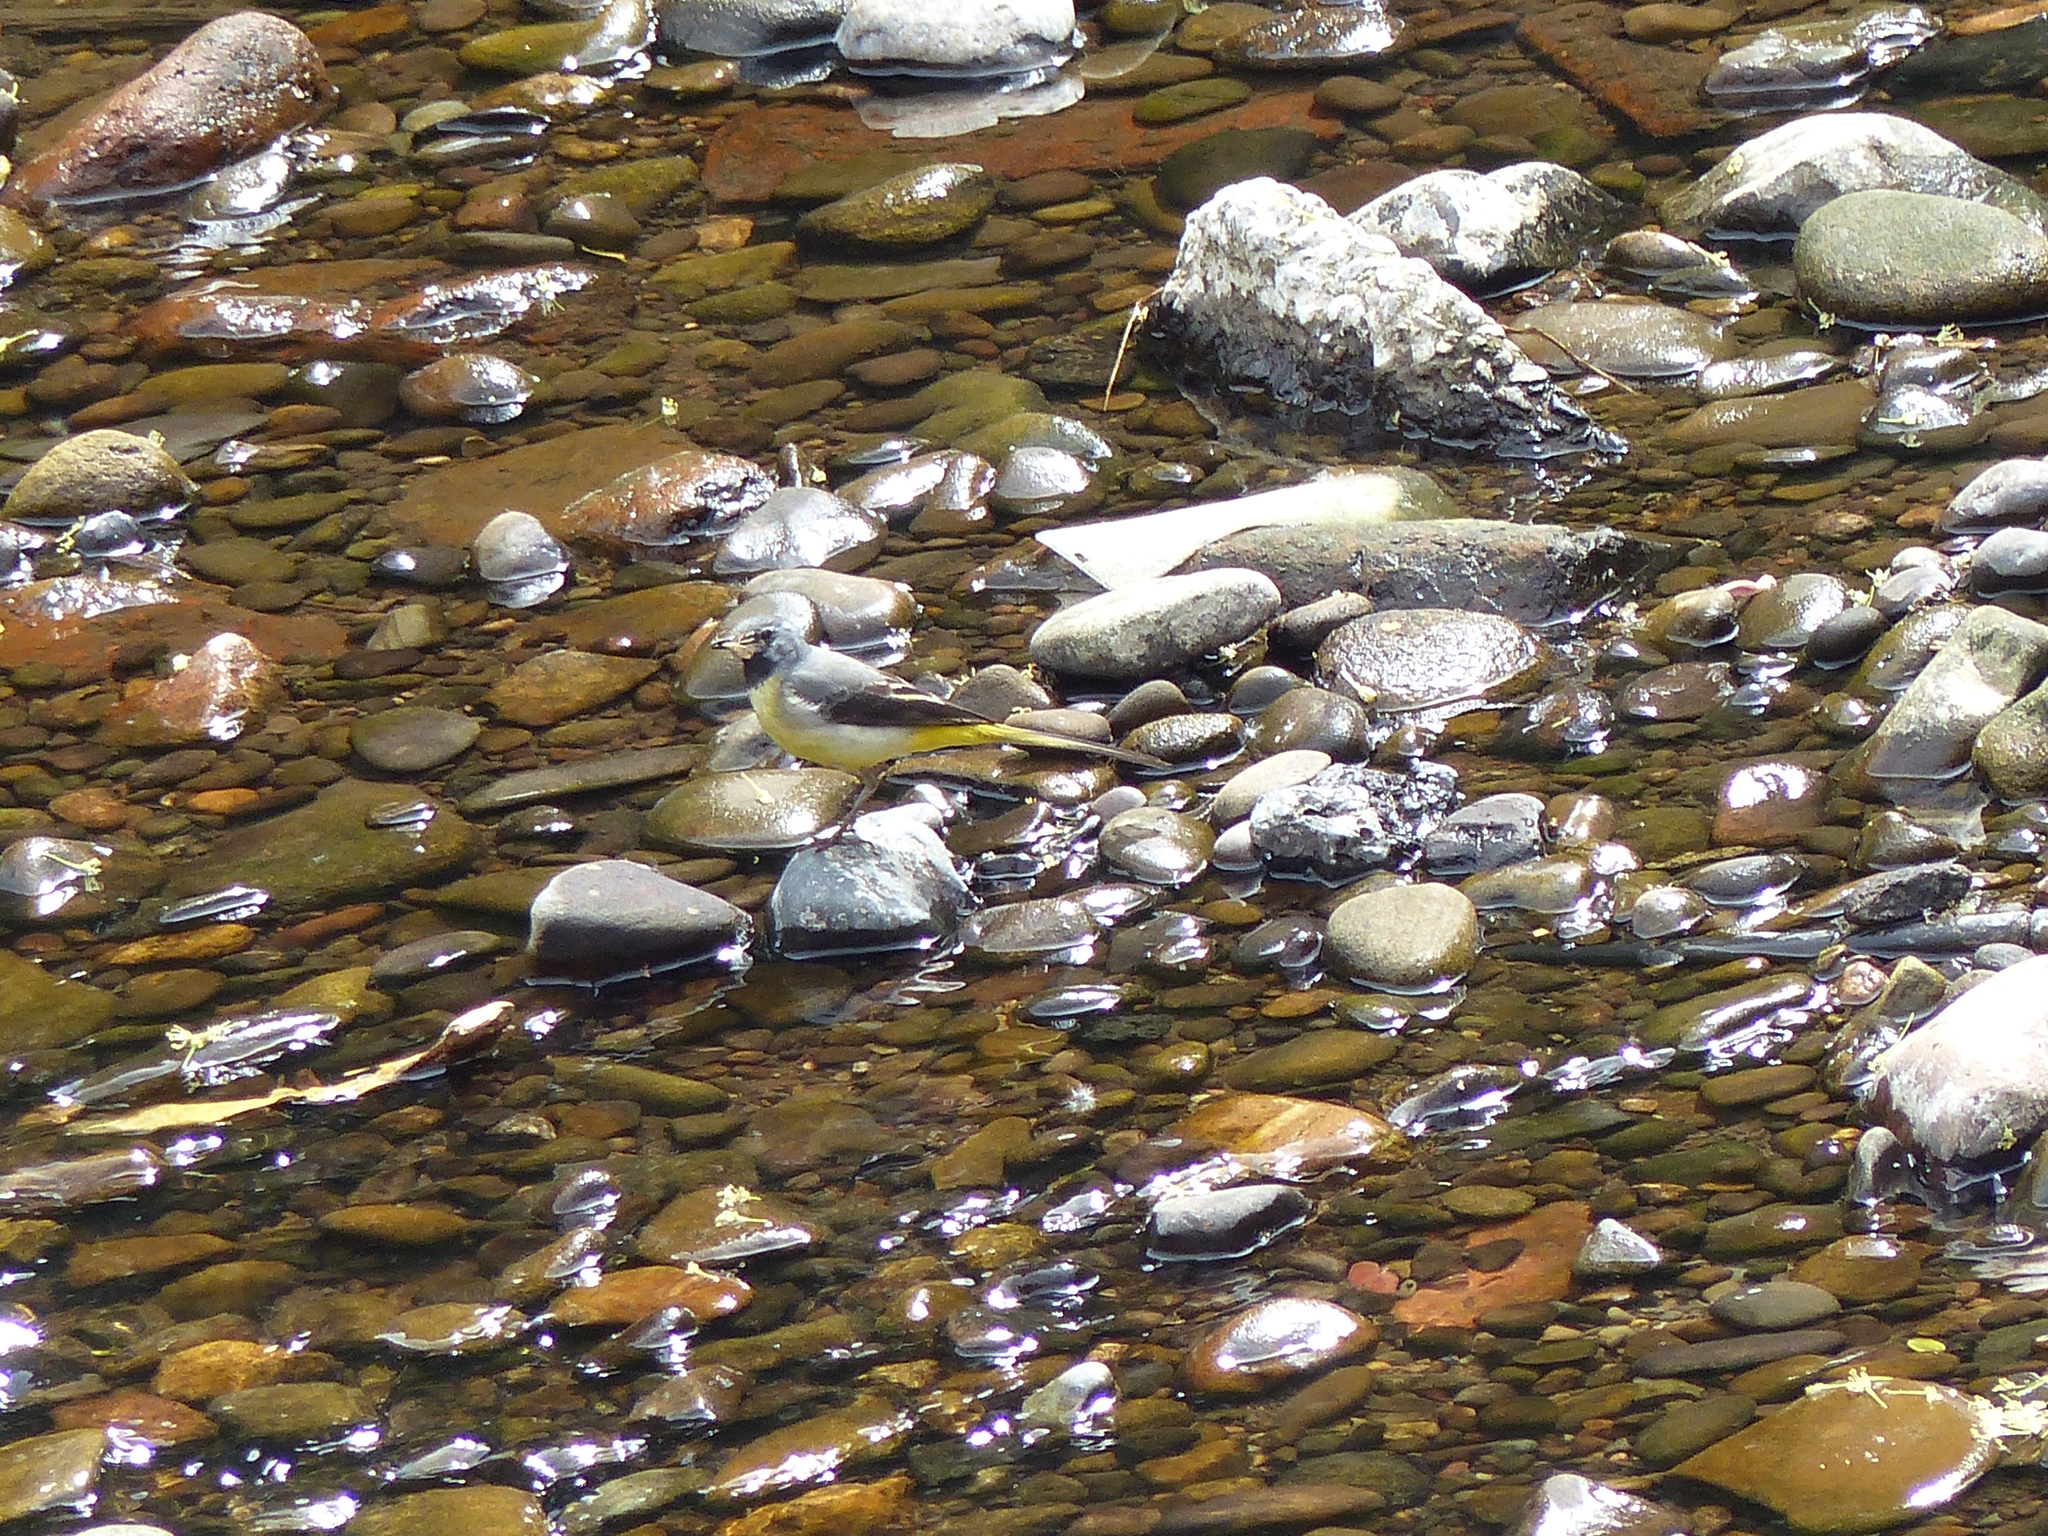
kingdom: Animalia
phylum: Chordata
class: Aves
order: Passeriformes
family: Motacillidae
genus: Motacilla
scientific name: Motacilla cinerea
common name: Grey wagtail
